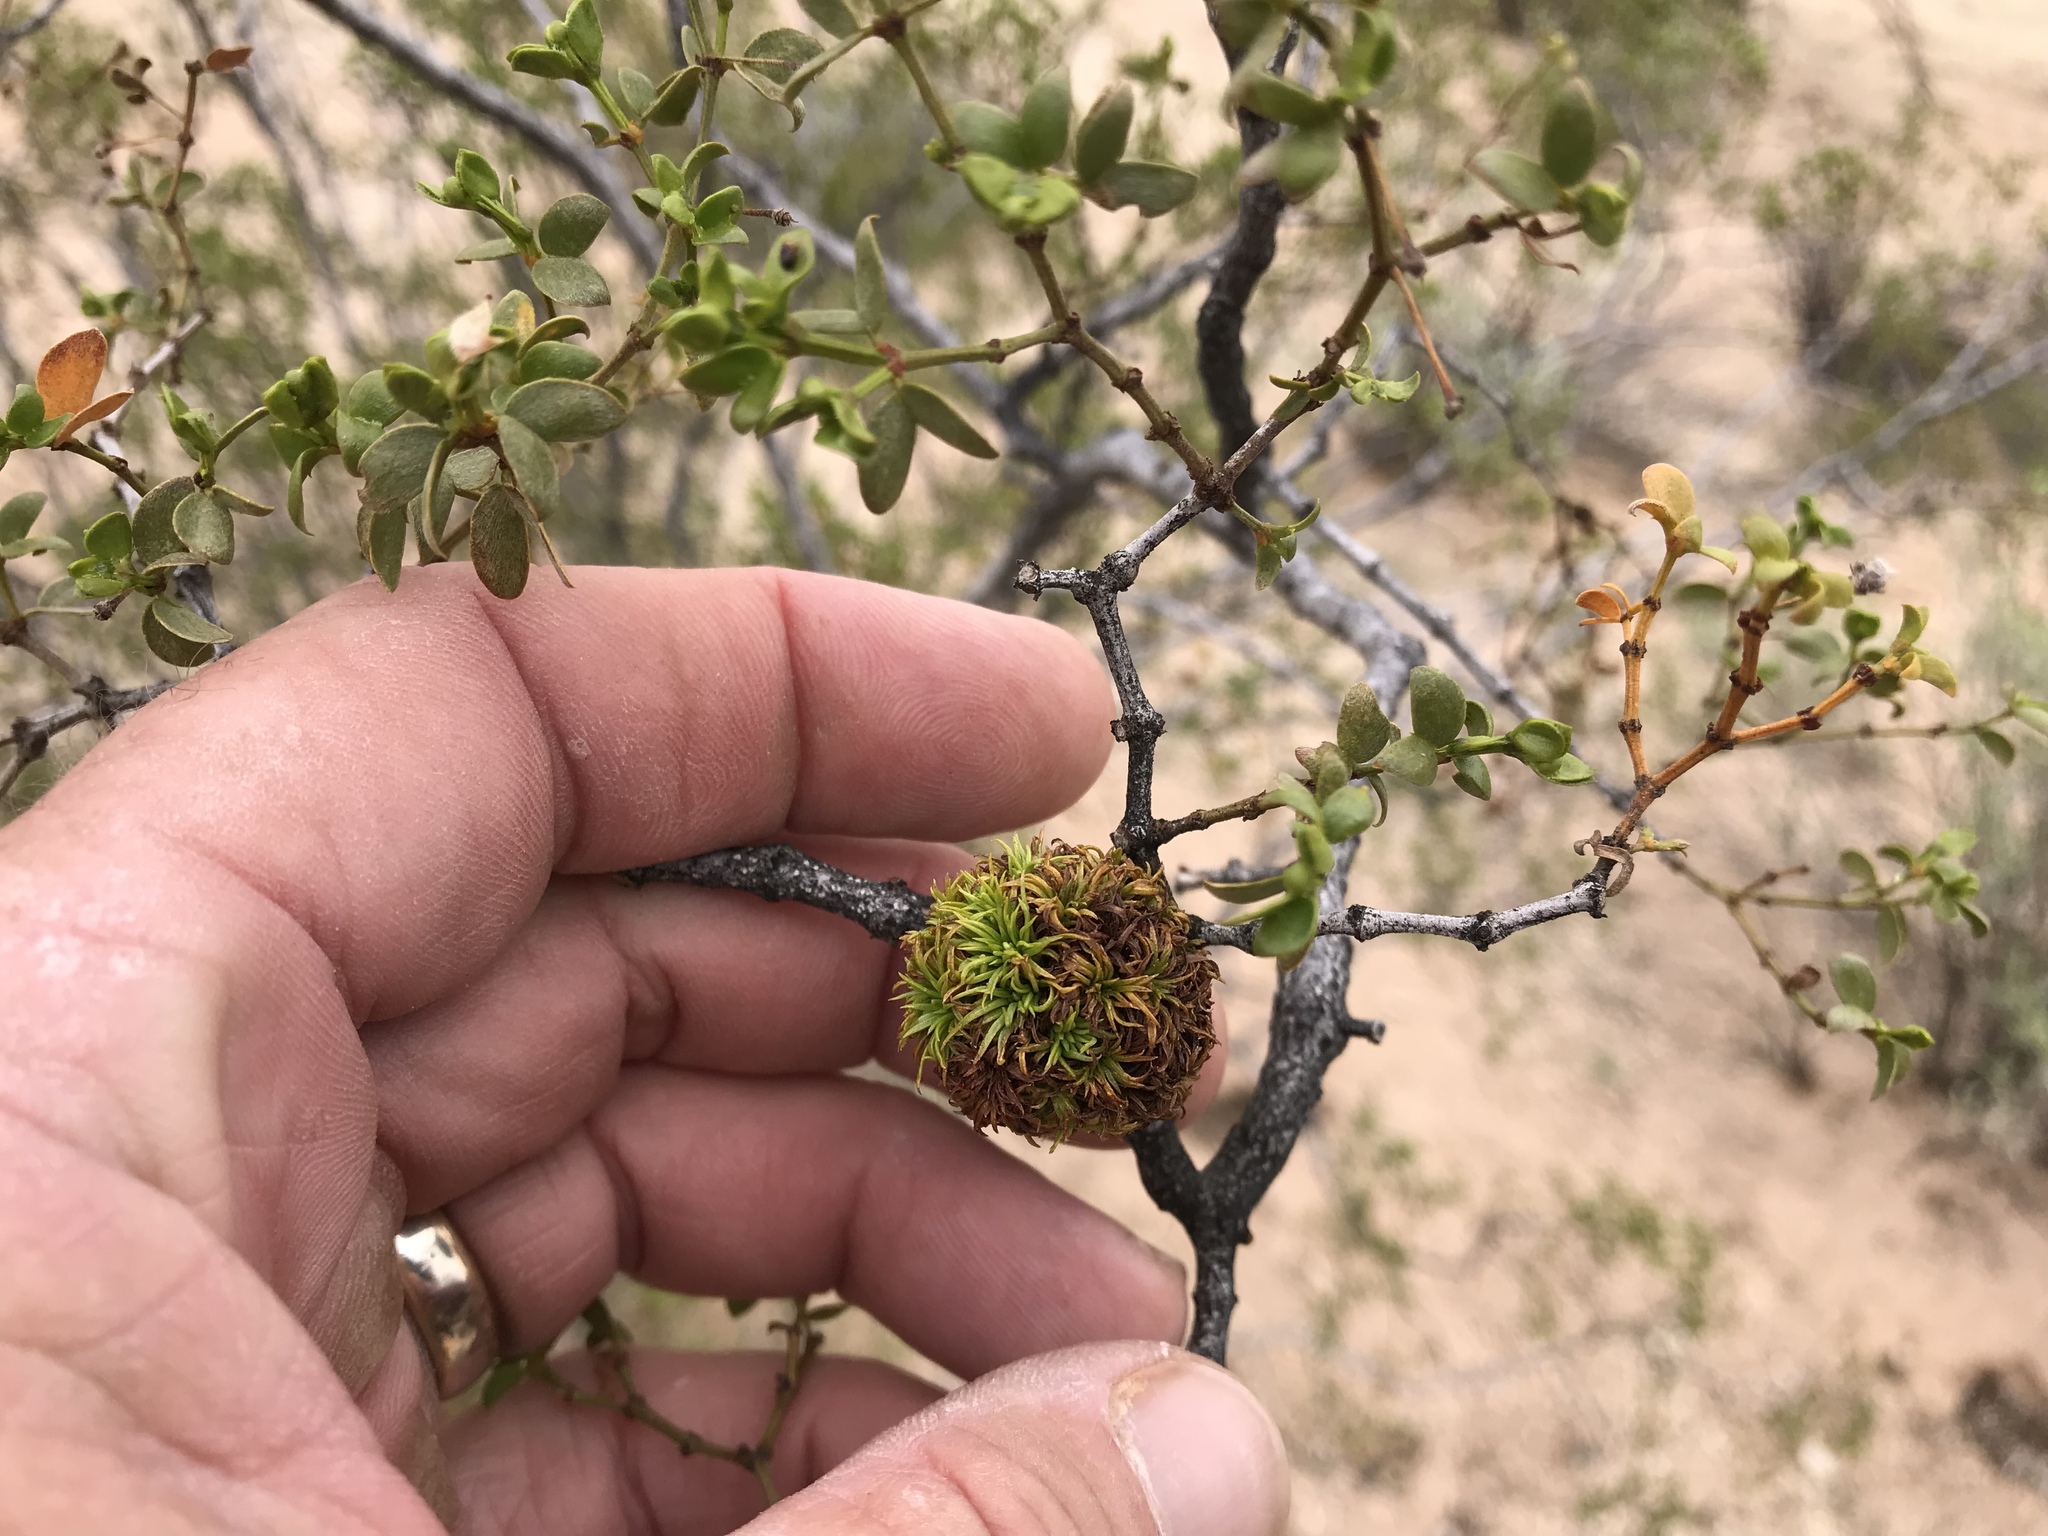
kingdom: Animalia
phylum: Arthropoda
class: Insecta
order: Diptera
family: Cecidomyiidae
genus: Asphondylia
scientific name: Asphondylia auripila
